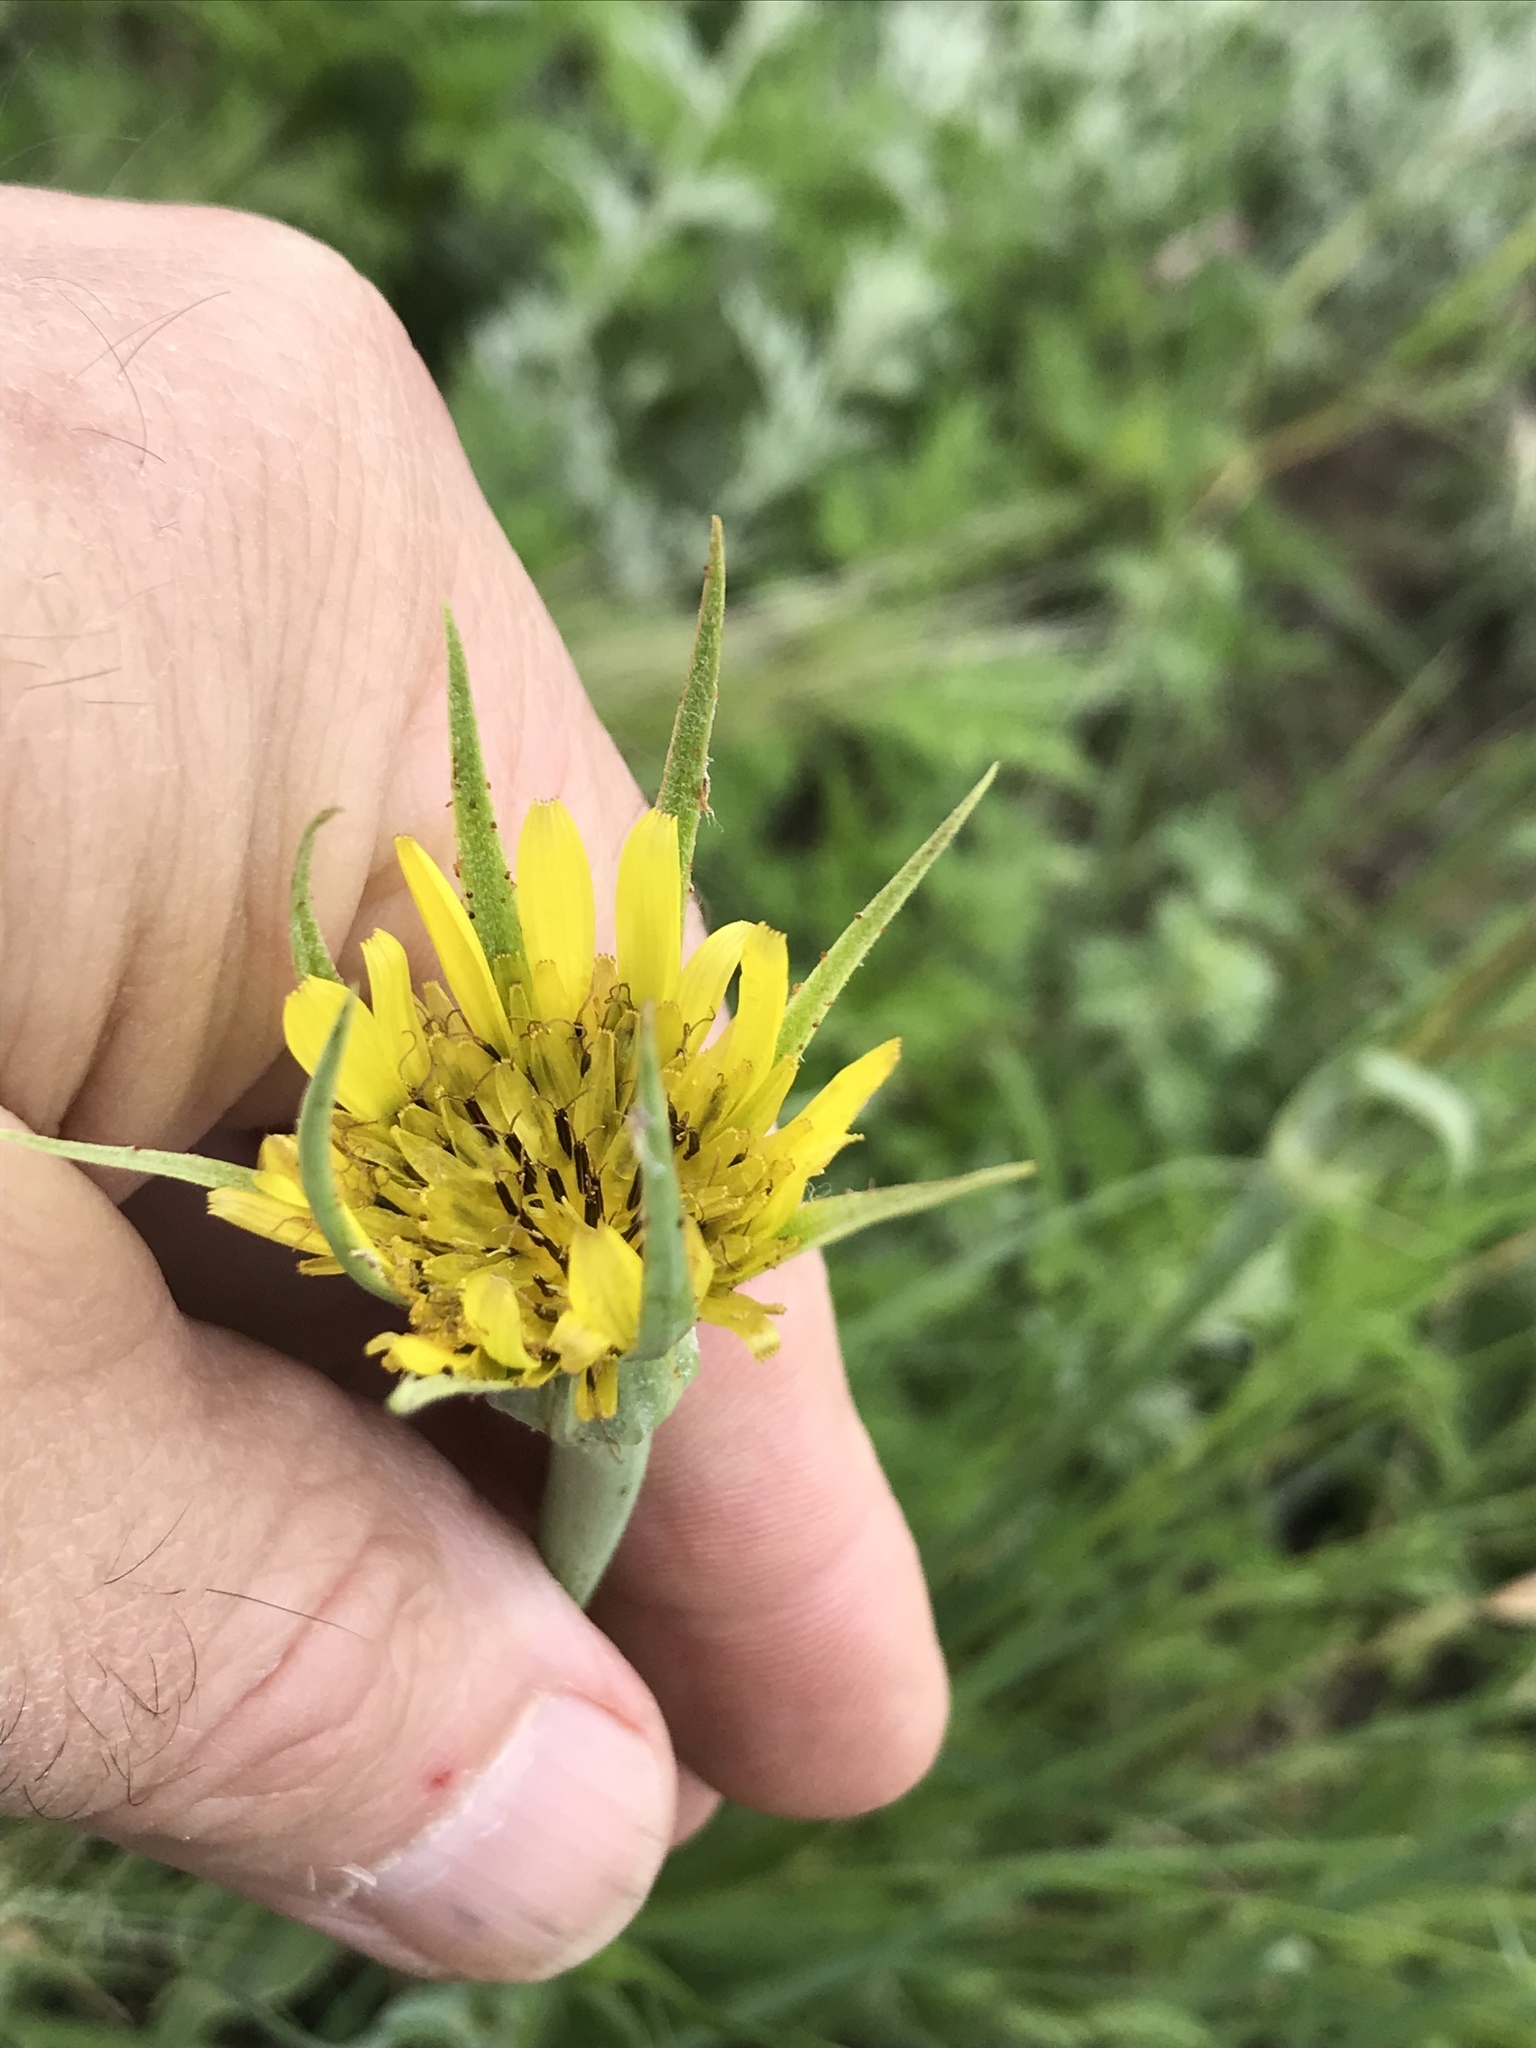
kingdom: Plantae
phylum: Tracheophyta
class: Magnoliopsida
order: Asterales
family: Asteraceae
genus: Tragopogon
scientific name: Tragopogon dubius
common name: Yellow salsify
